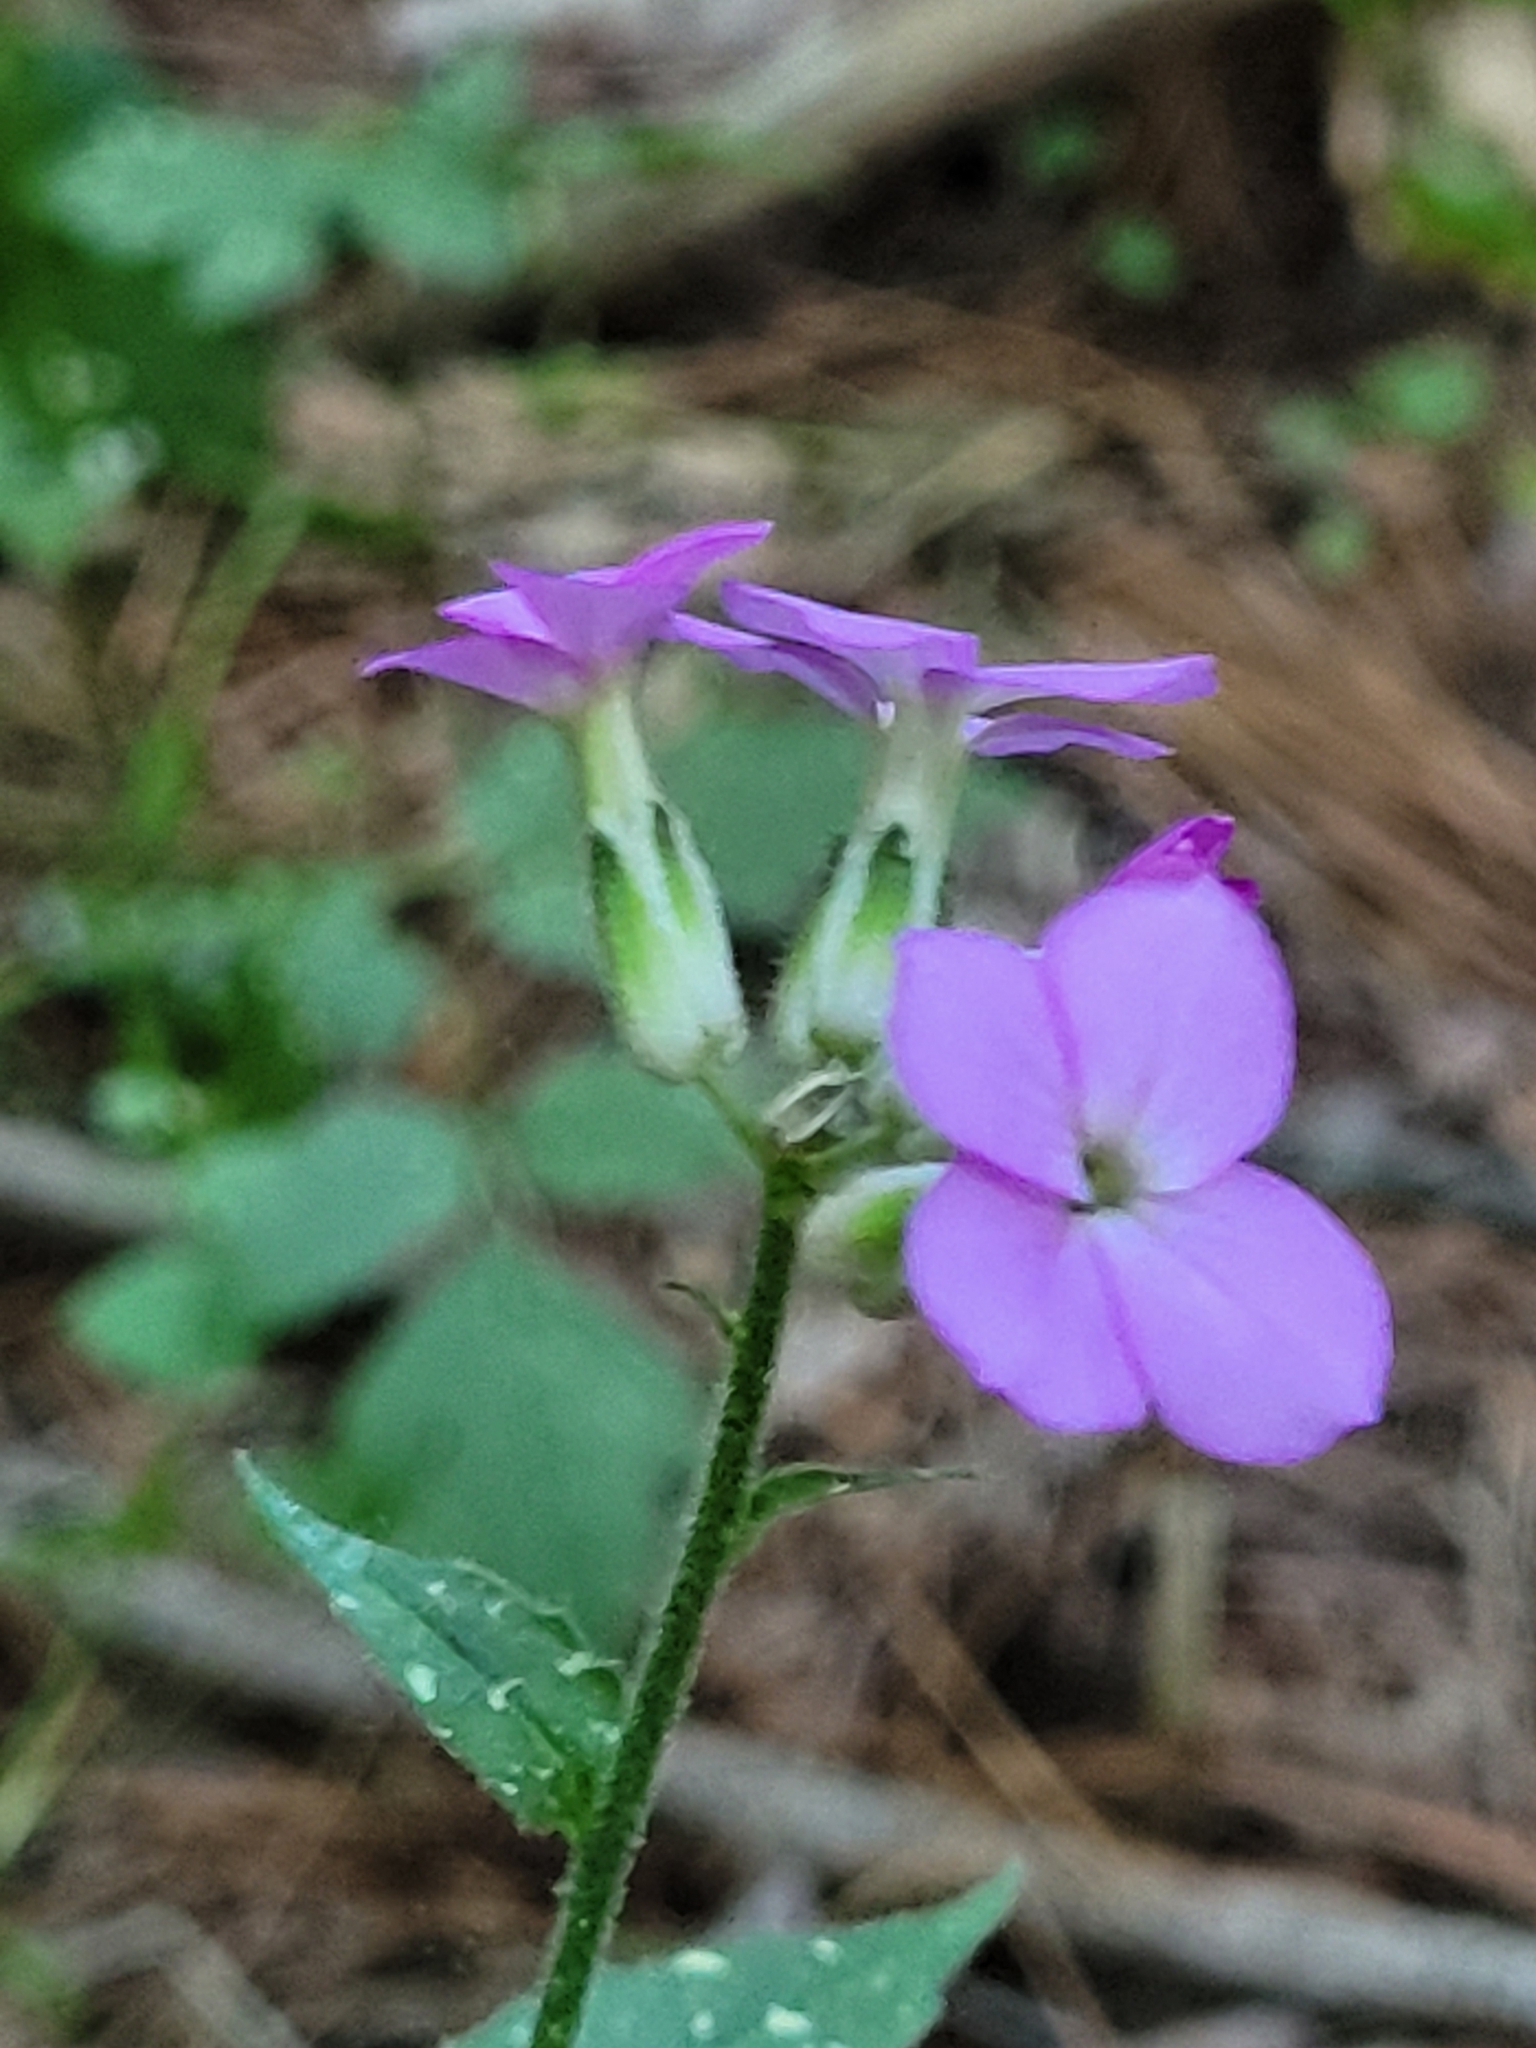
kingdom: Plantae
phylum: Tracheophyta
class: Magnoliopsida
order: Brassicales
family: Brassicaceae
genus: Hesperis
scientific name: Hesperis matronalis
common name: Dame's-violet
